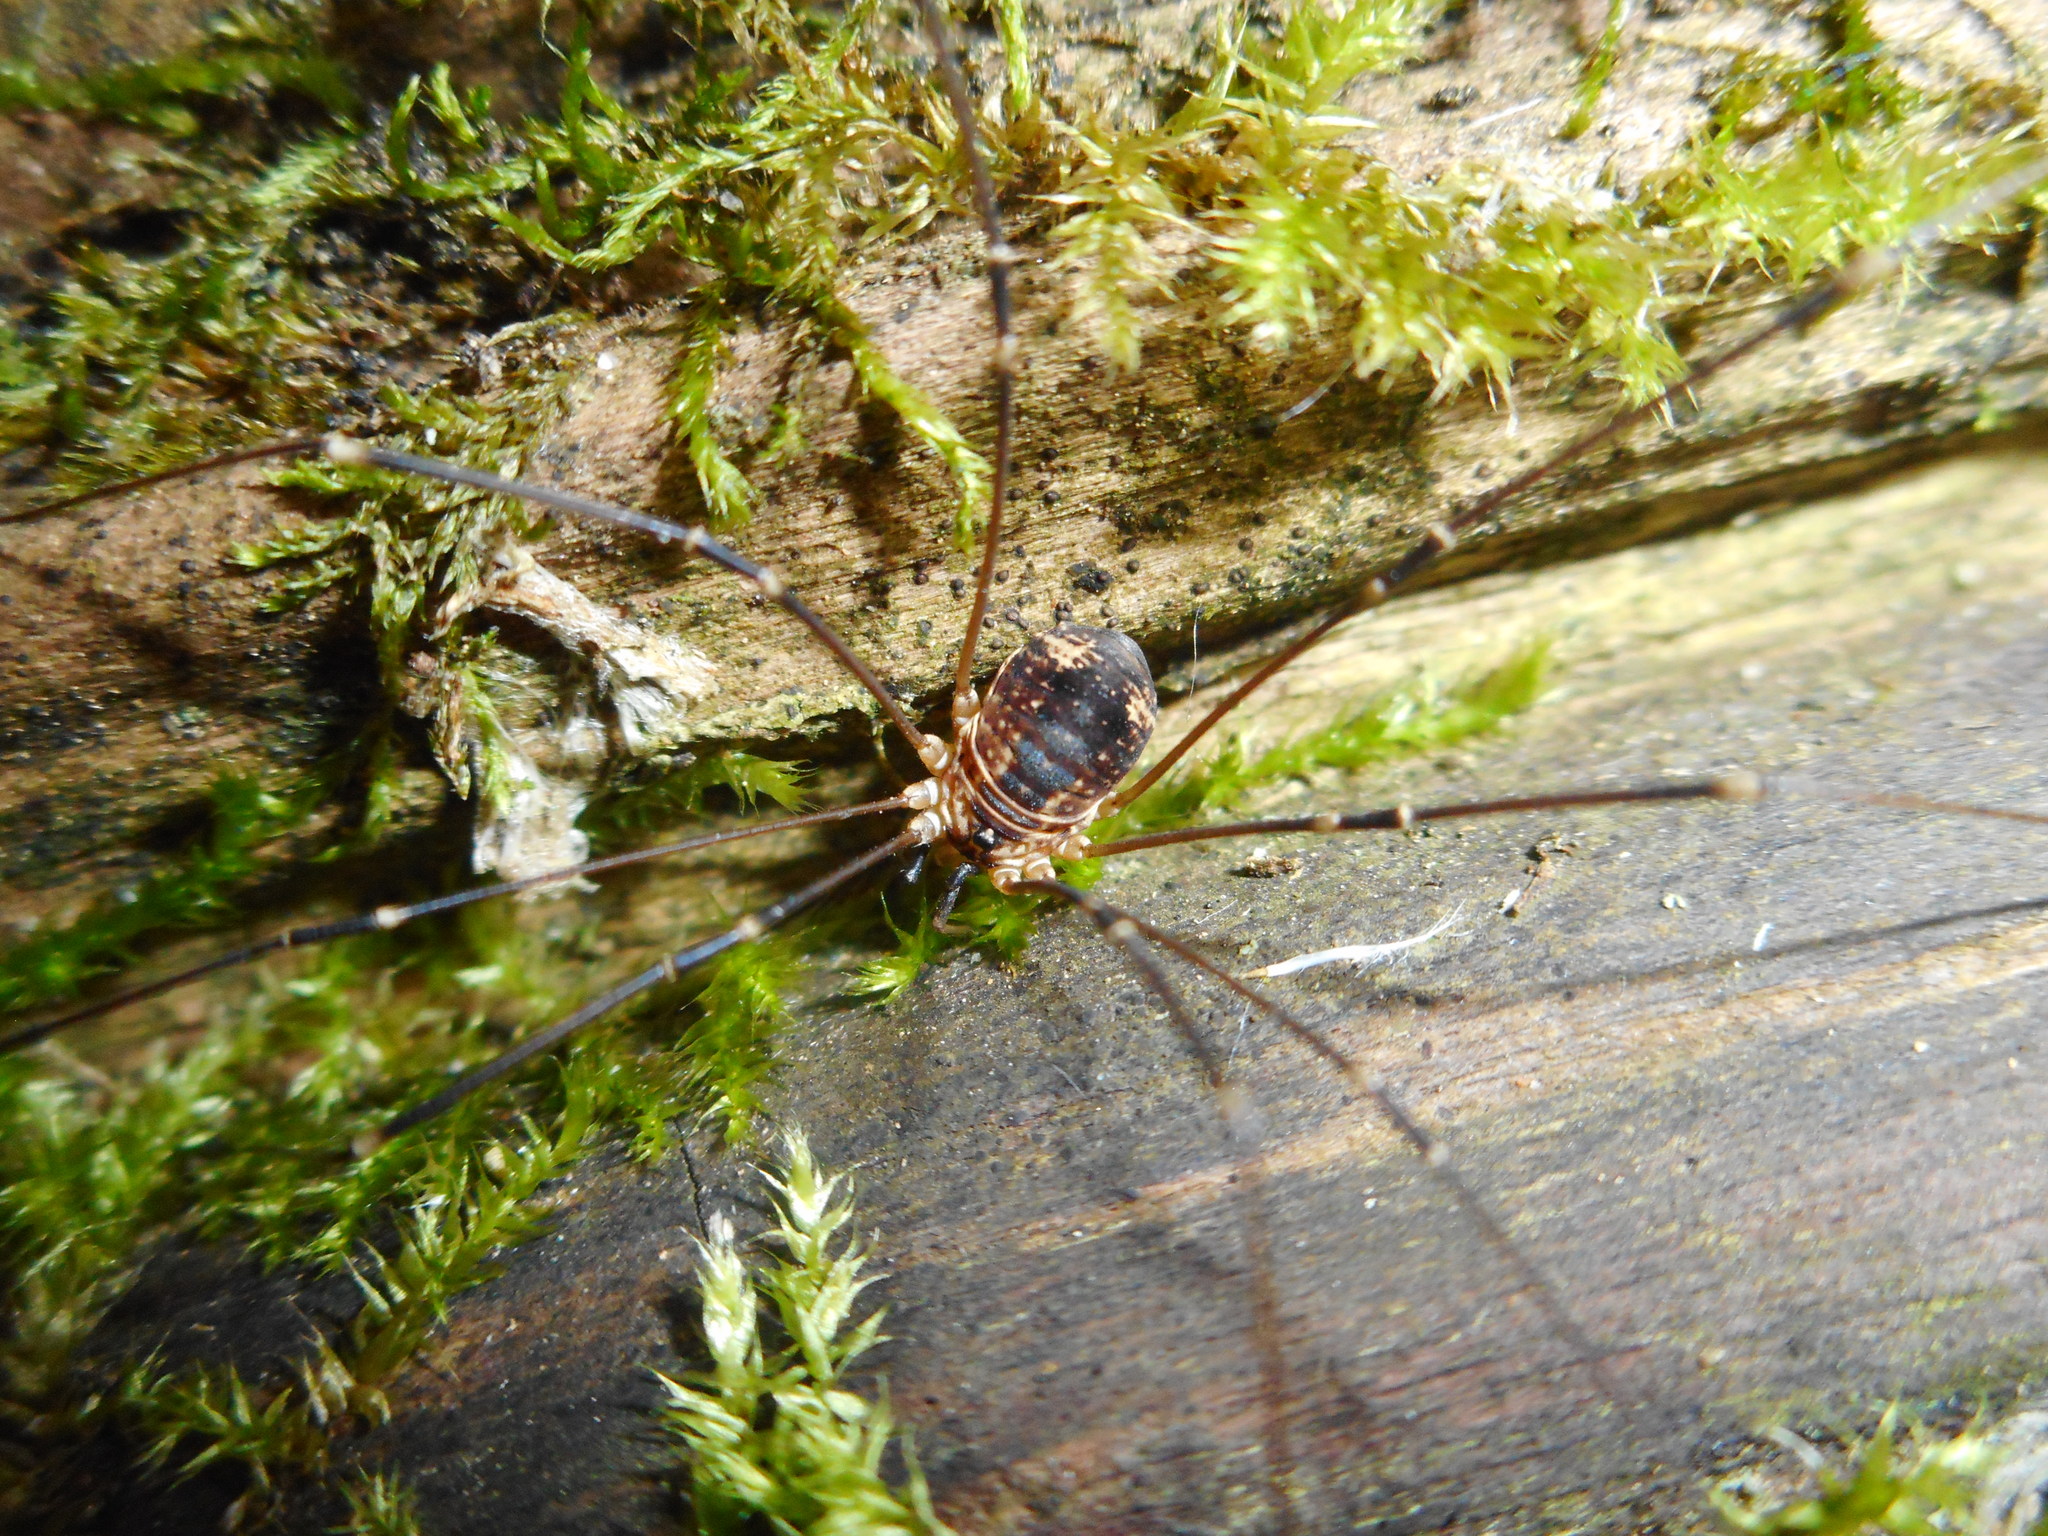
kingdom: Animalia
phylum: Arthropoda
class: Arachnida
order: Opiliones
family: Sclerosomatidae
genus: Leiobunum
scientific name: Leiobunum gracile
